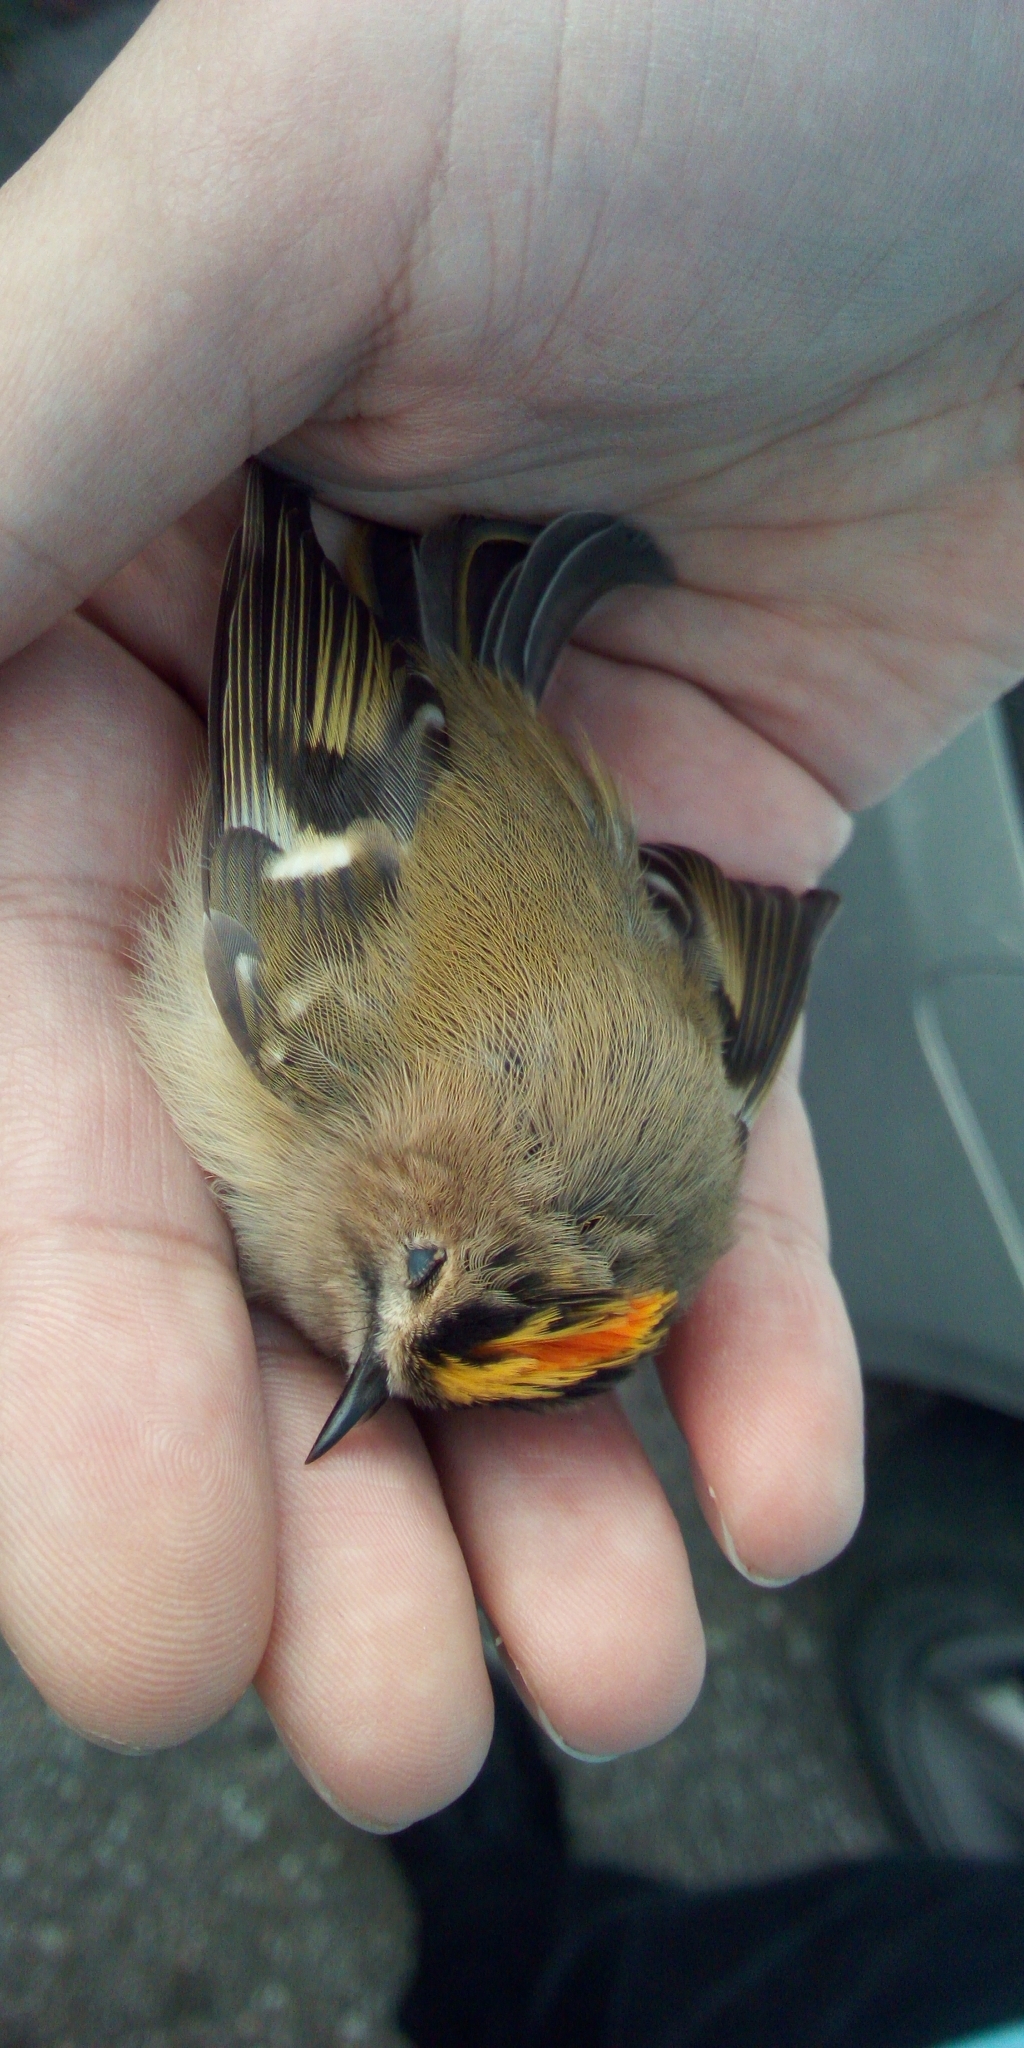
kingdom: Animalia
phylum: Chordata
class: Aves
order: Passeriformes
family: Regulidae
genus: Regulus
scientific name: Regulus regulus
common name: Goldcrest
